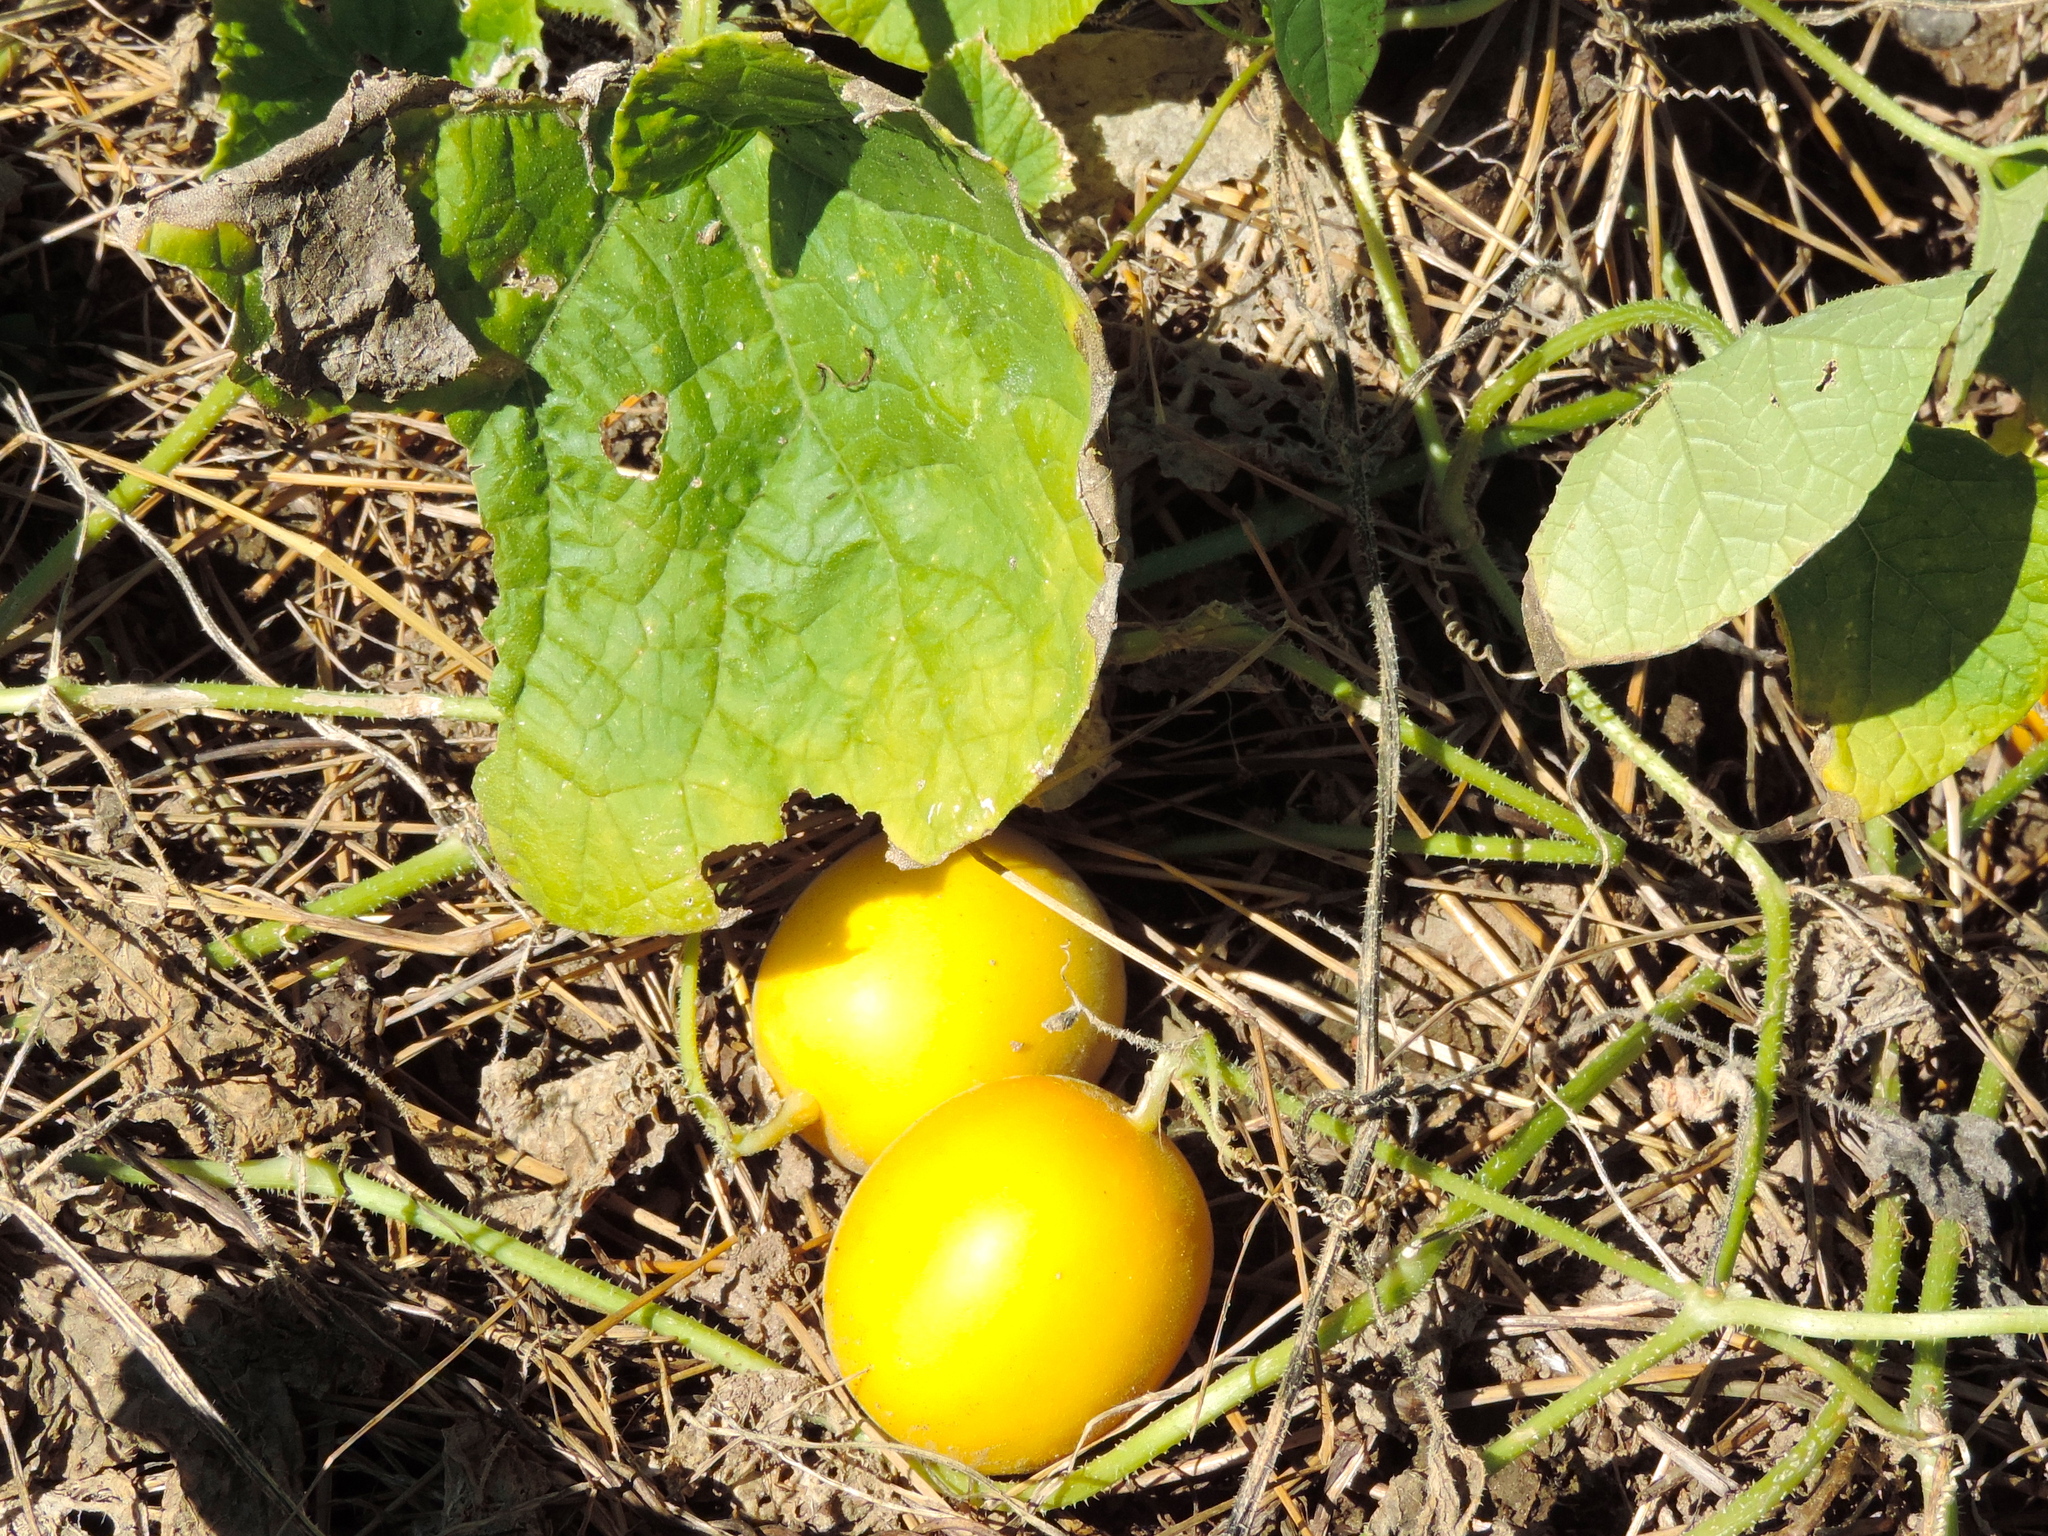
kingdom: Plantae
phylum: Tracheophyta
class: Magnoliopsida
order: Cucurbitales
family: Cucurbitaceae
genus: Cucumis
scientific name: Cucumis melo
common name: Melon
